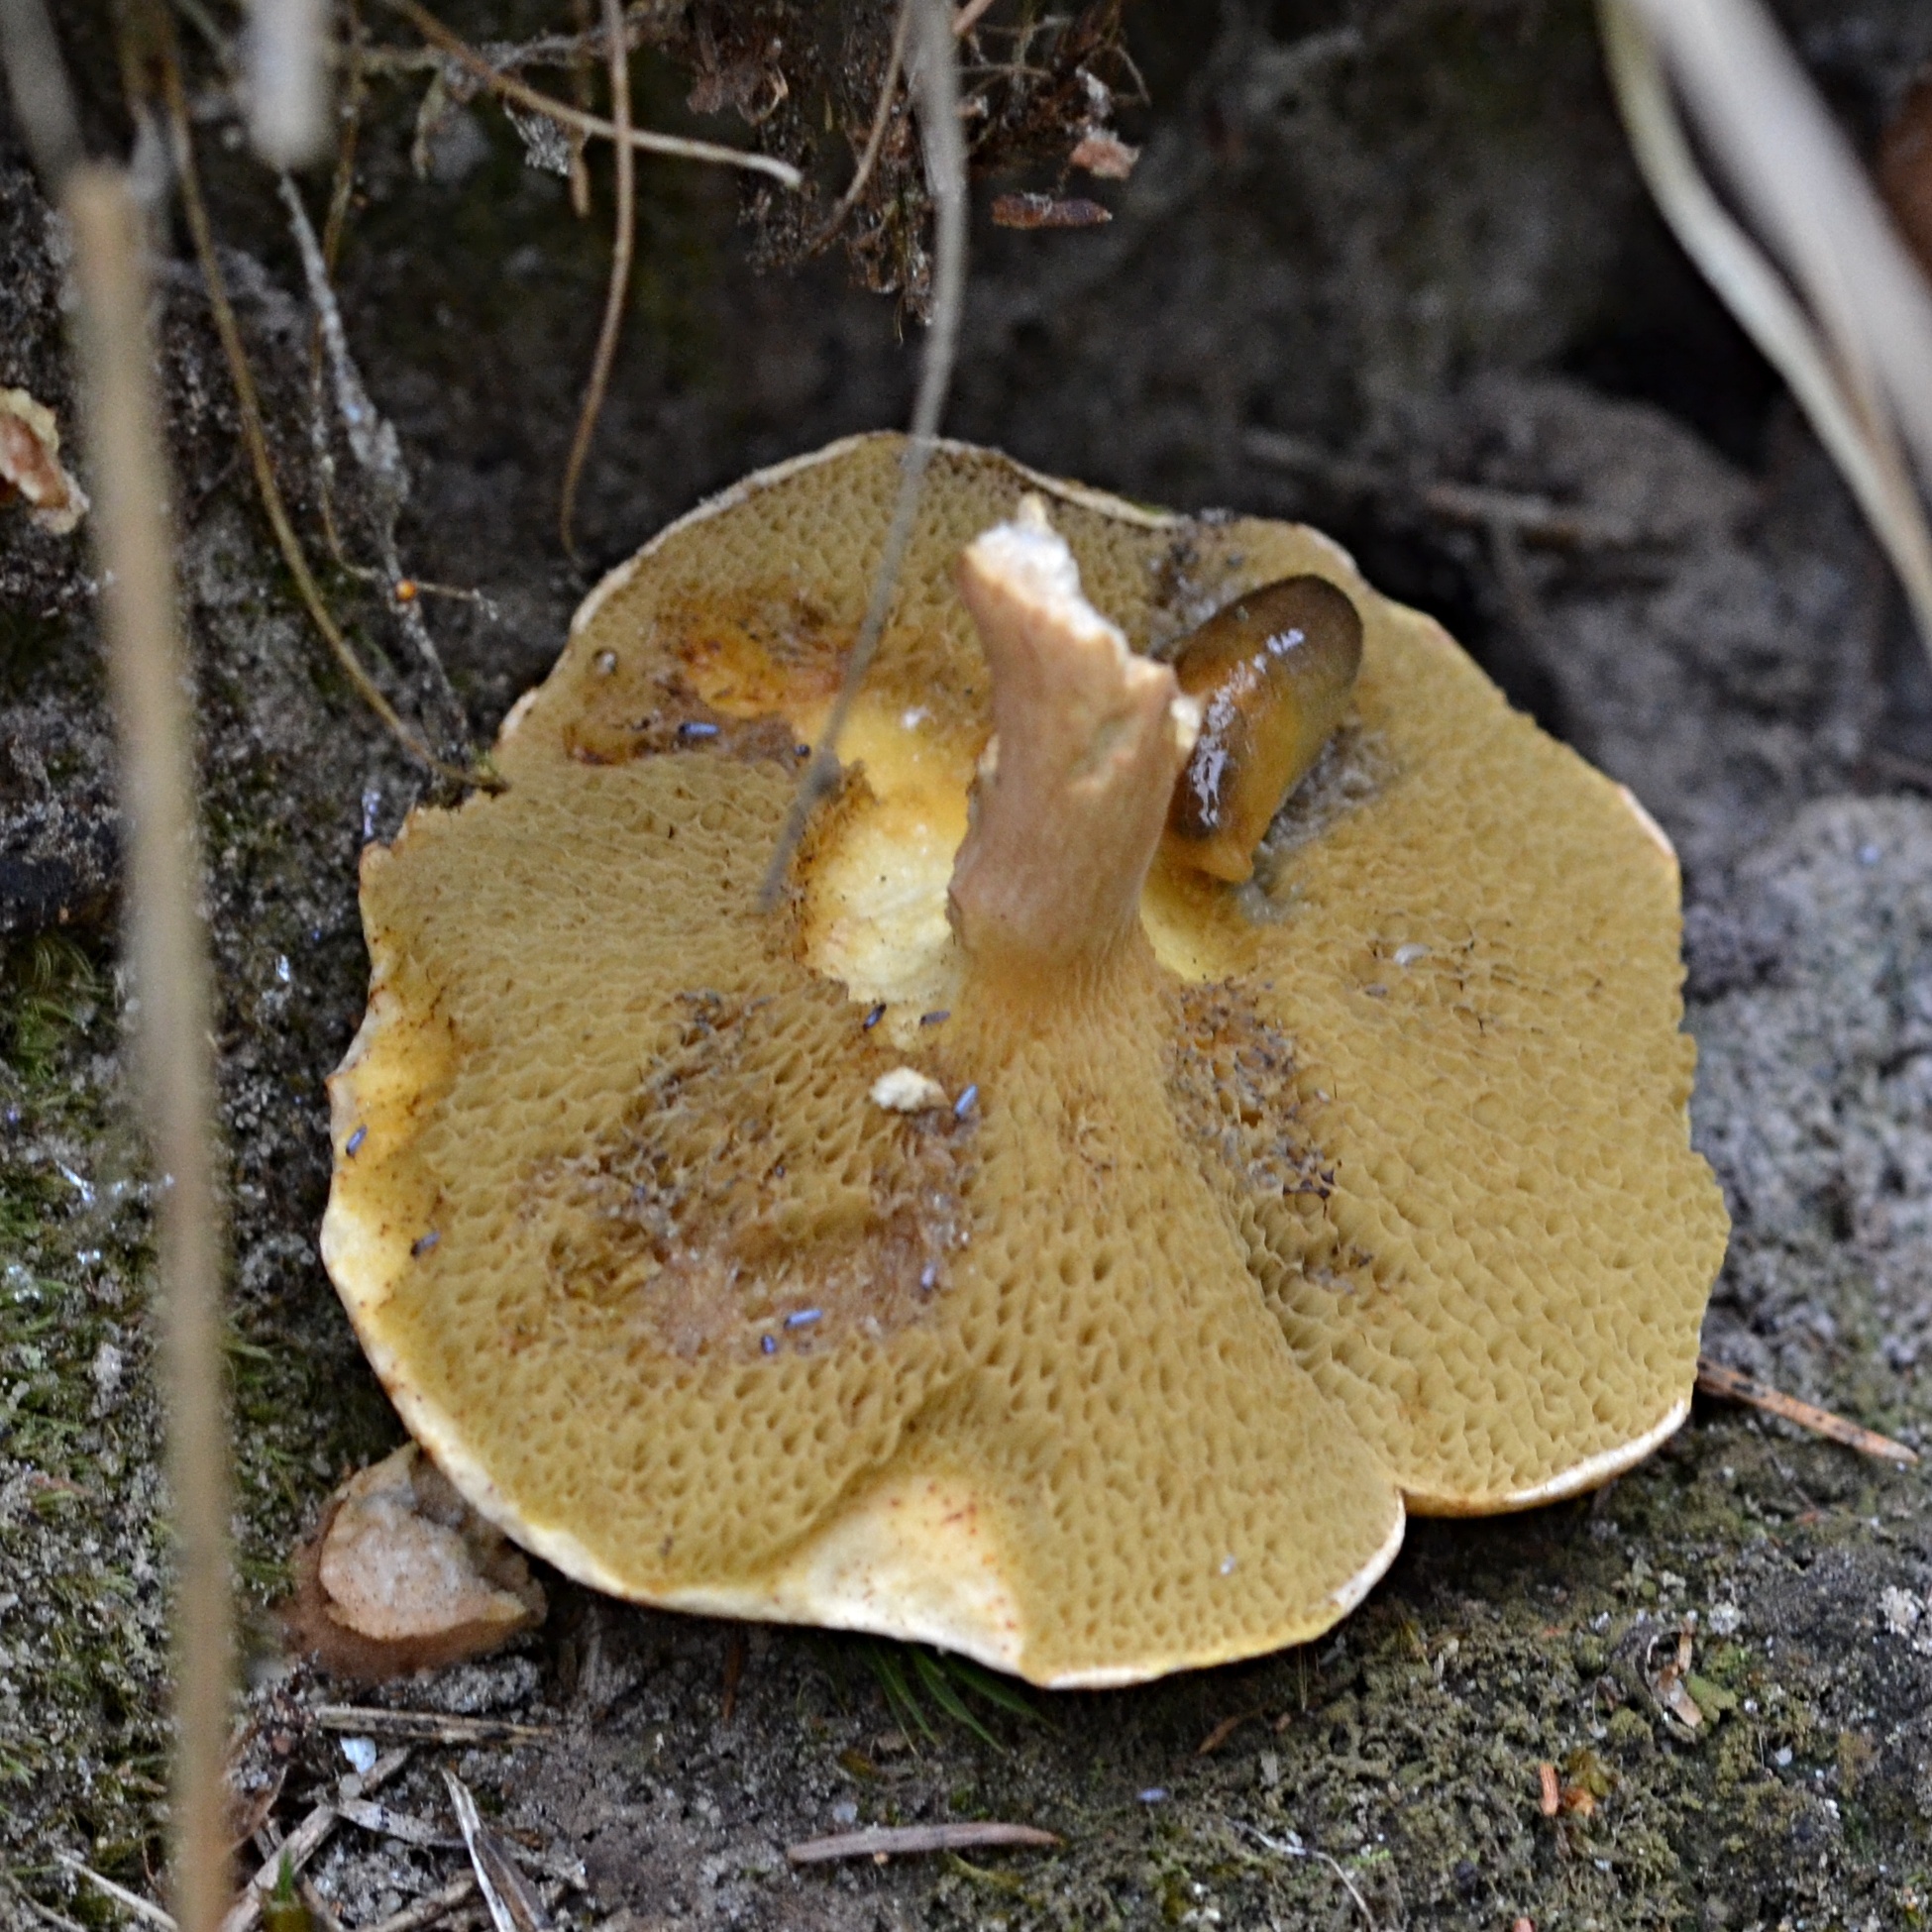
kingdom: Fungi
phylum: Basidiomycota
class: Agaricomycetes
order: Boletales
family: Boletaceae
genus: Aureoboletus
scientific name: Aureoboletus gentilis
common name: Gilded bolete
